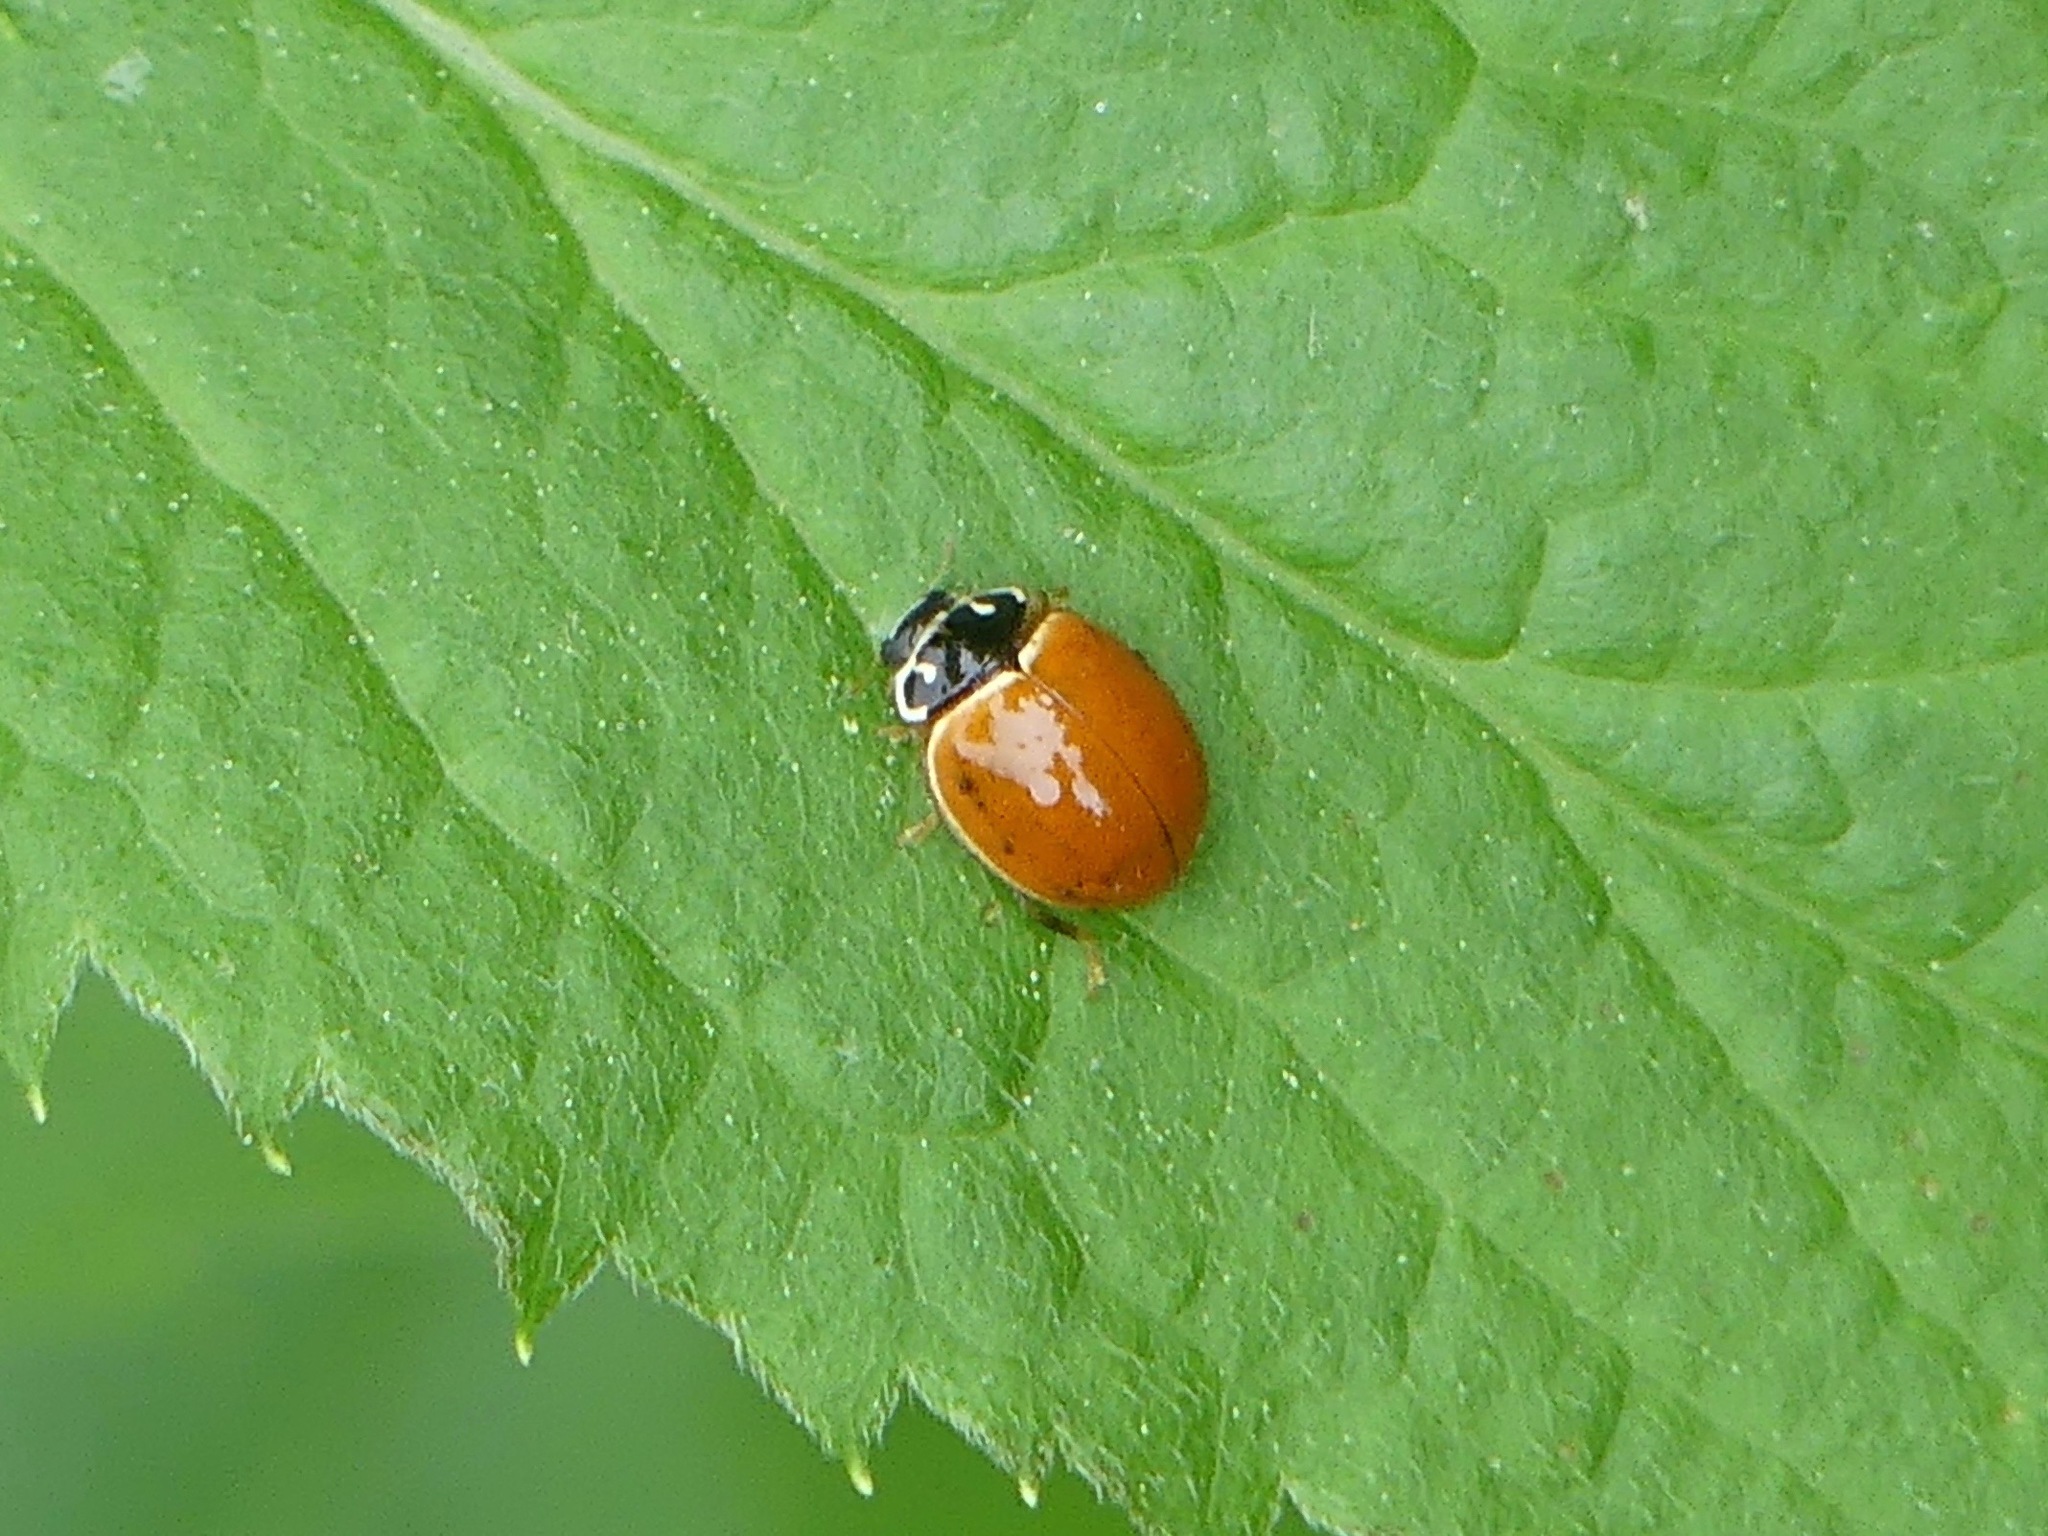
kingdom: Animalia
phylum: Arthropoda
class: Insecta
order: Coleoptera
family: Coccinellidae
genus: Cycloneda
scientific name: Cycloneda munda
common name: Polished lady beetle
